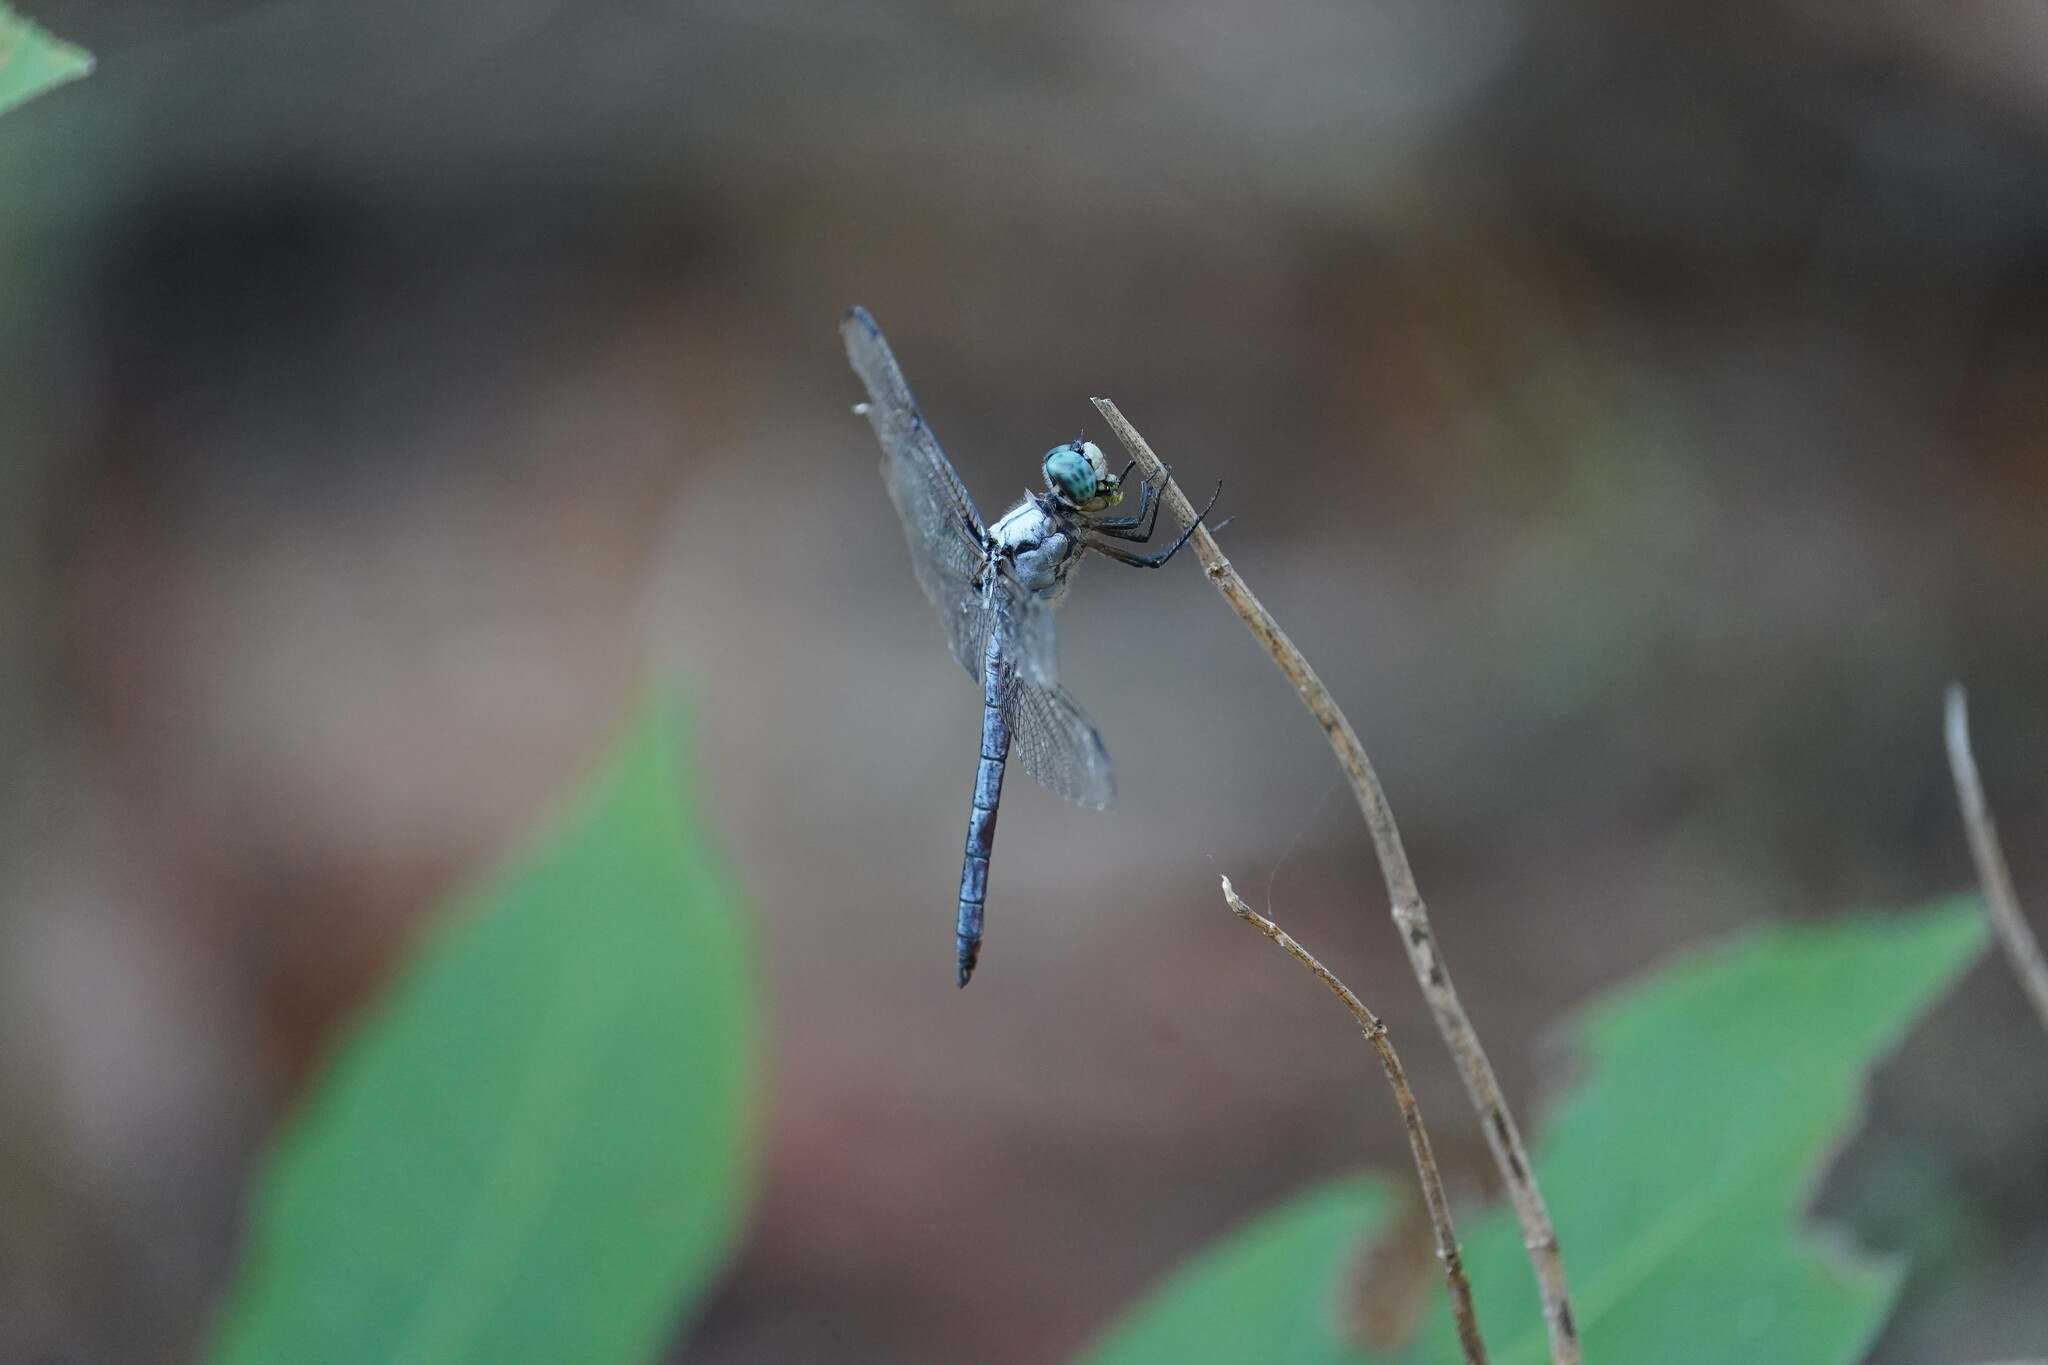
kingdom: Animalia
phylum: Arthropoda
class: Insecta
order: Odonata
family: Libellulidae
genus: Libellula
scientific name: Libellula vibrans
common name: Great blue skimmer
